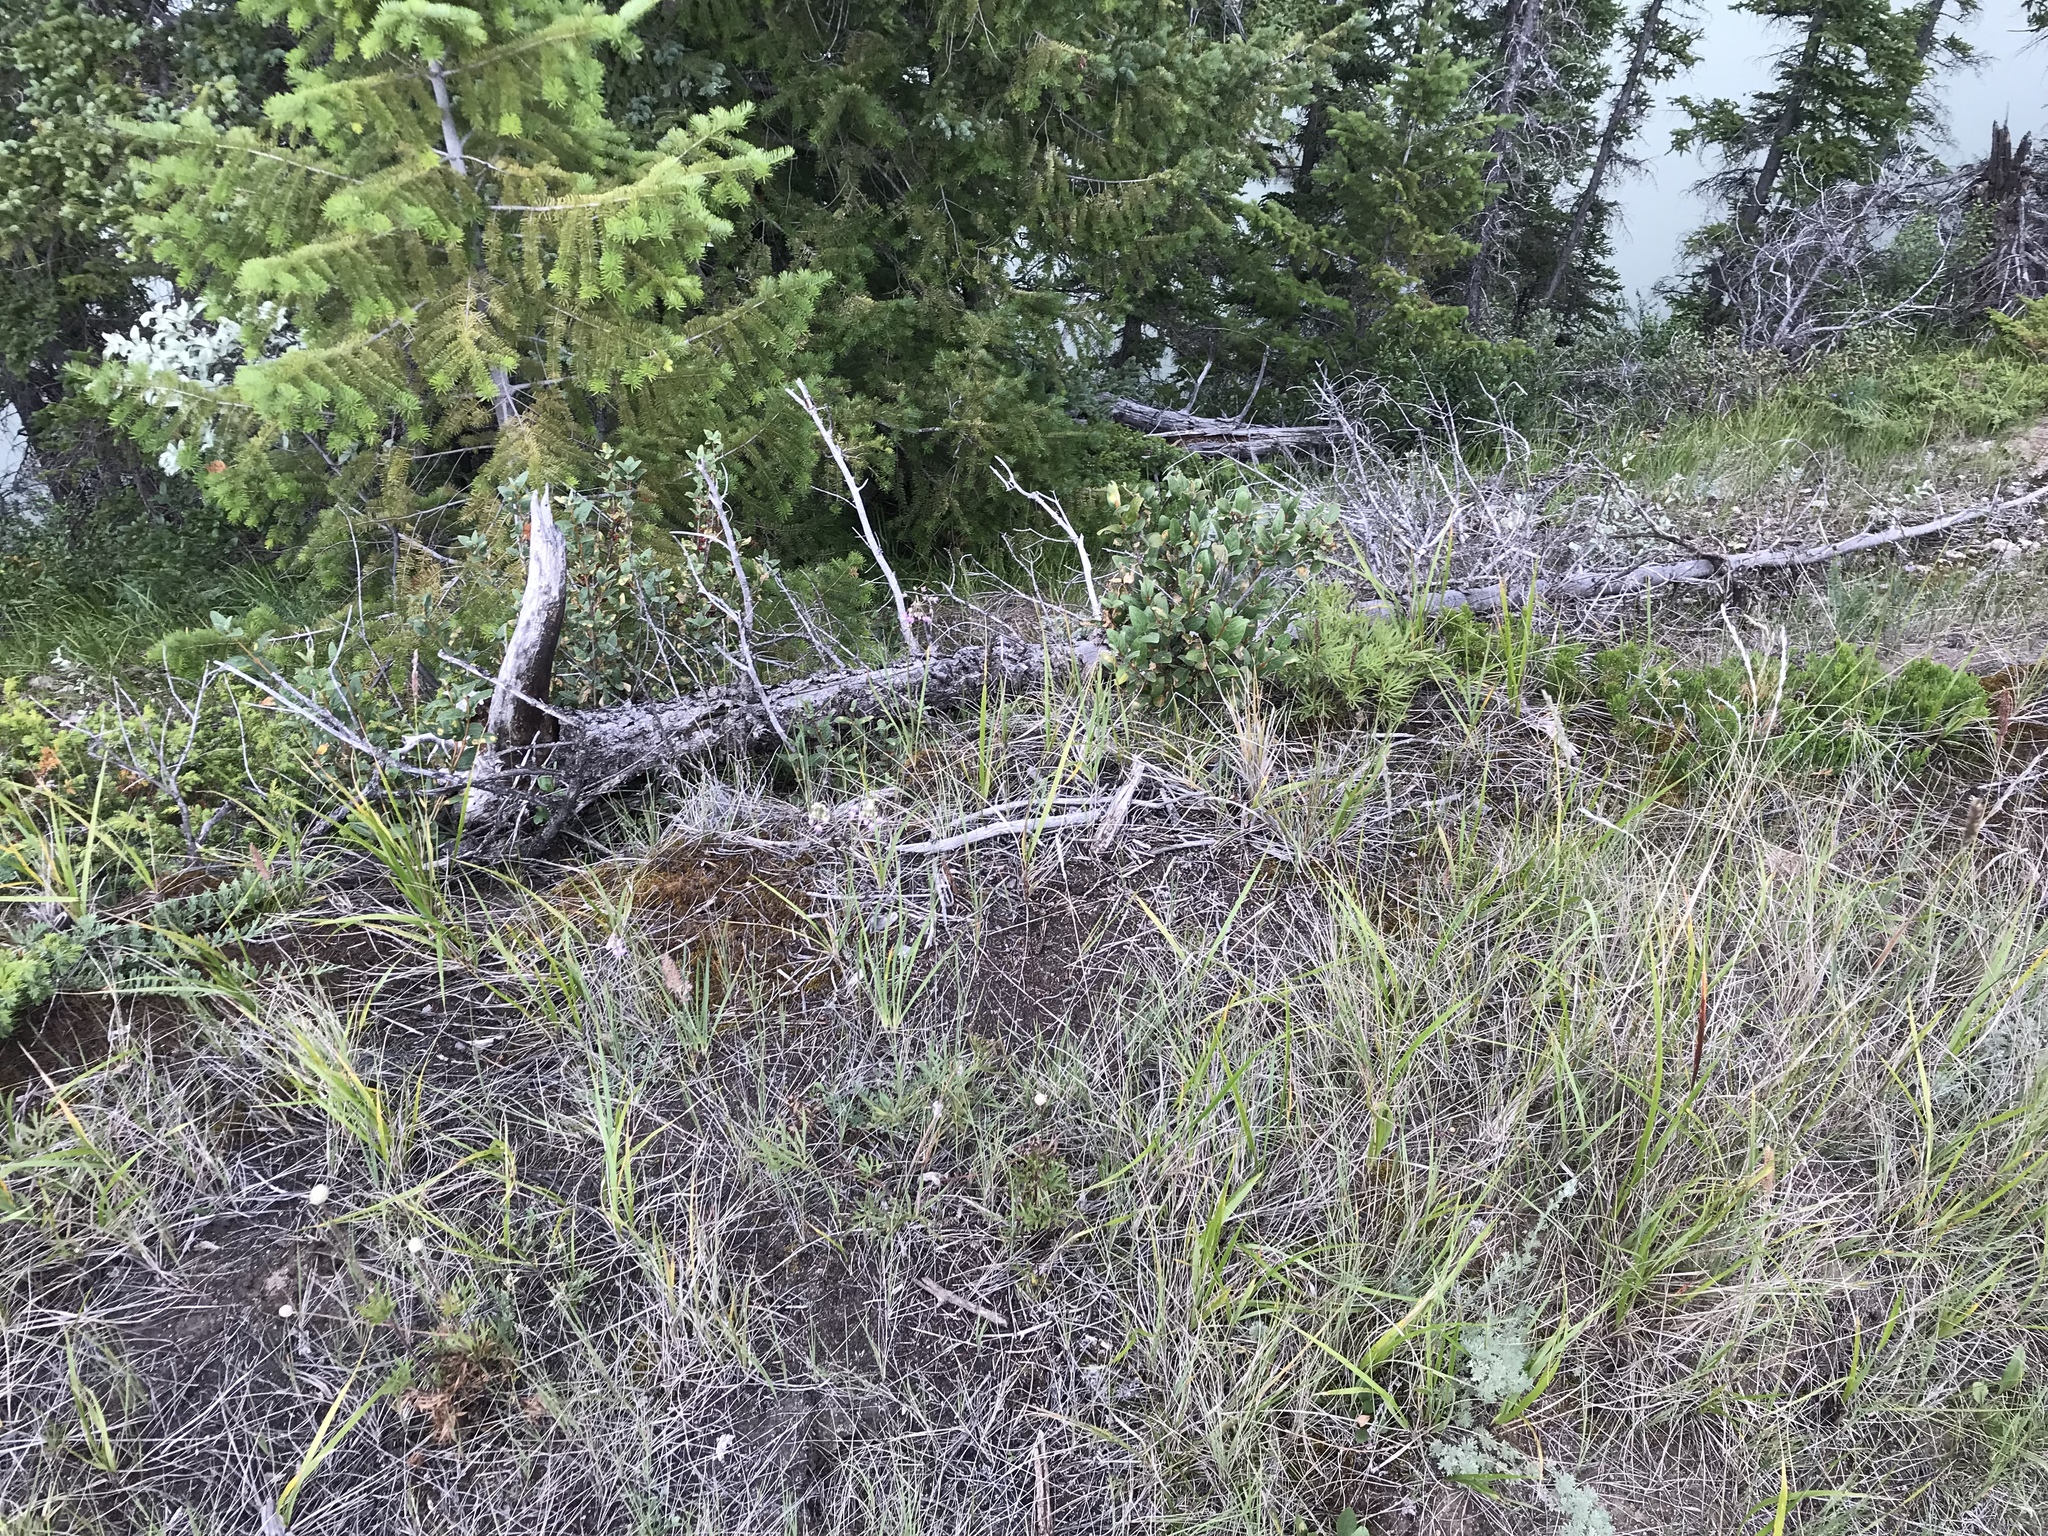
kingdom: Plantae
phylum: Tracheophyta
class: Liliopsida
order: Asparagales
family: Amaryllidaceae
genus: Allium
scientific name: Allium cernuum
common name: Nodding onion
